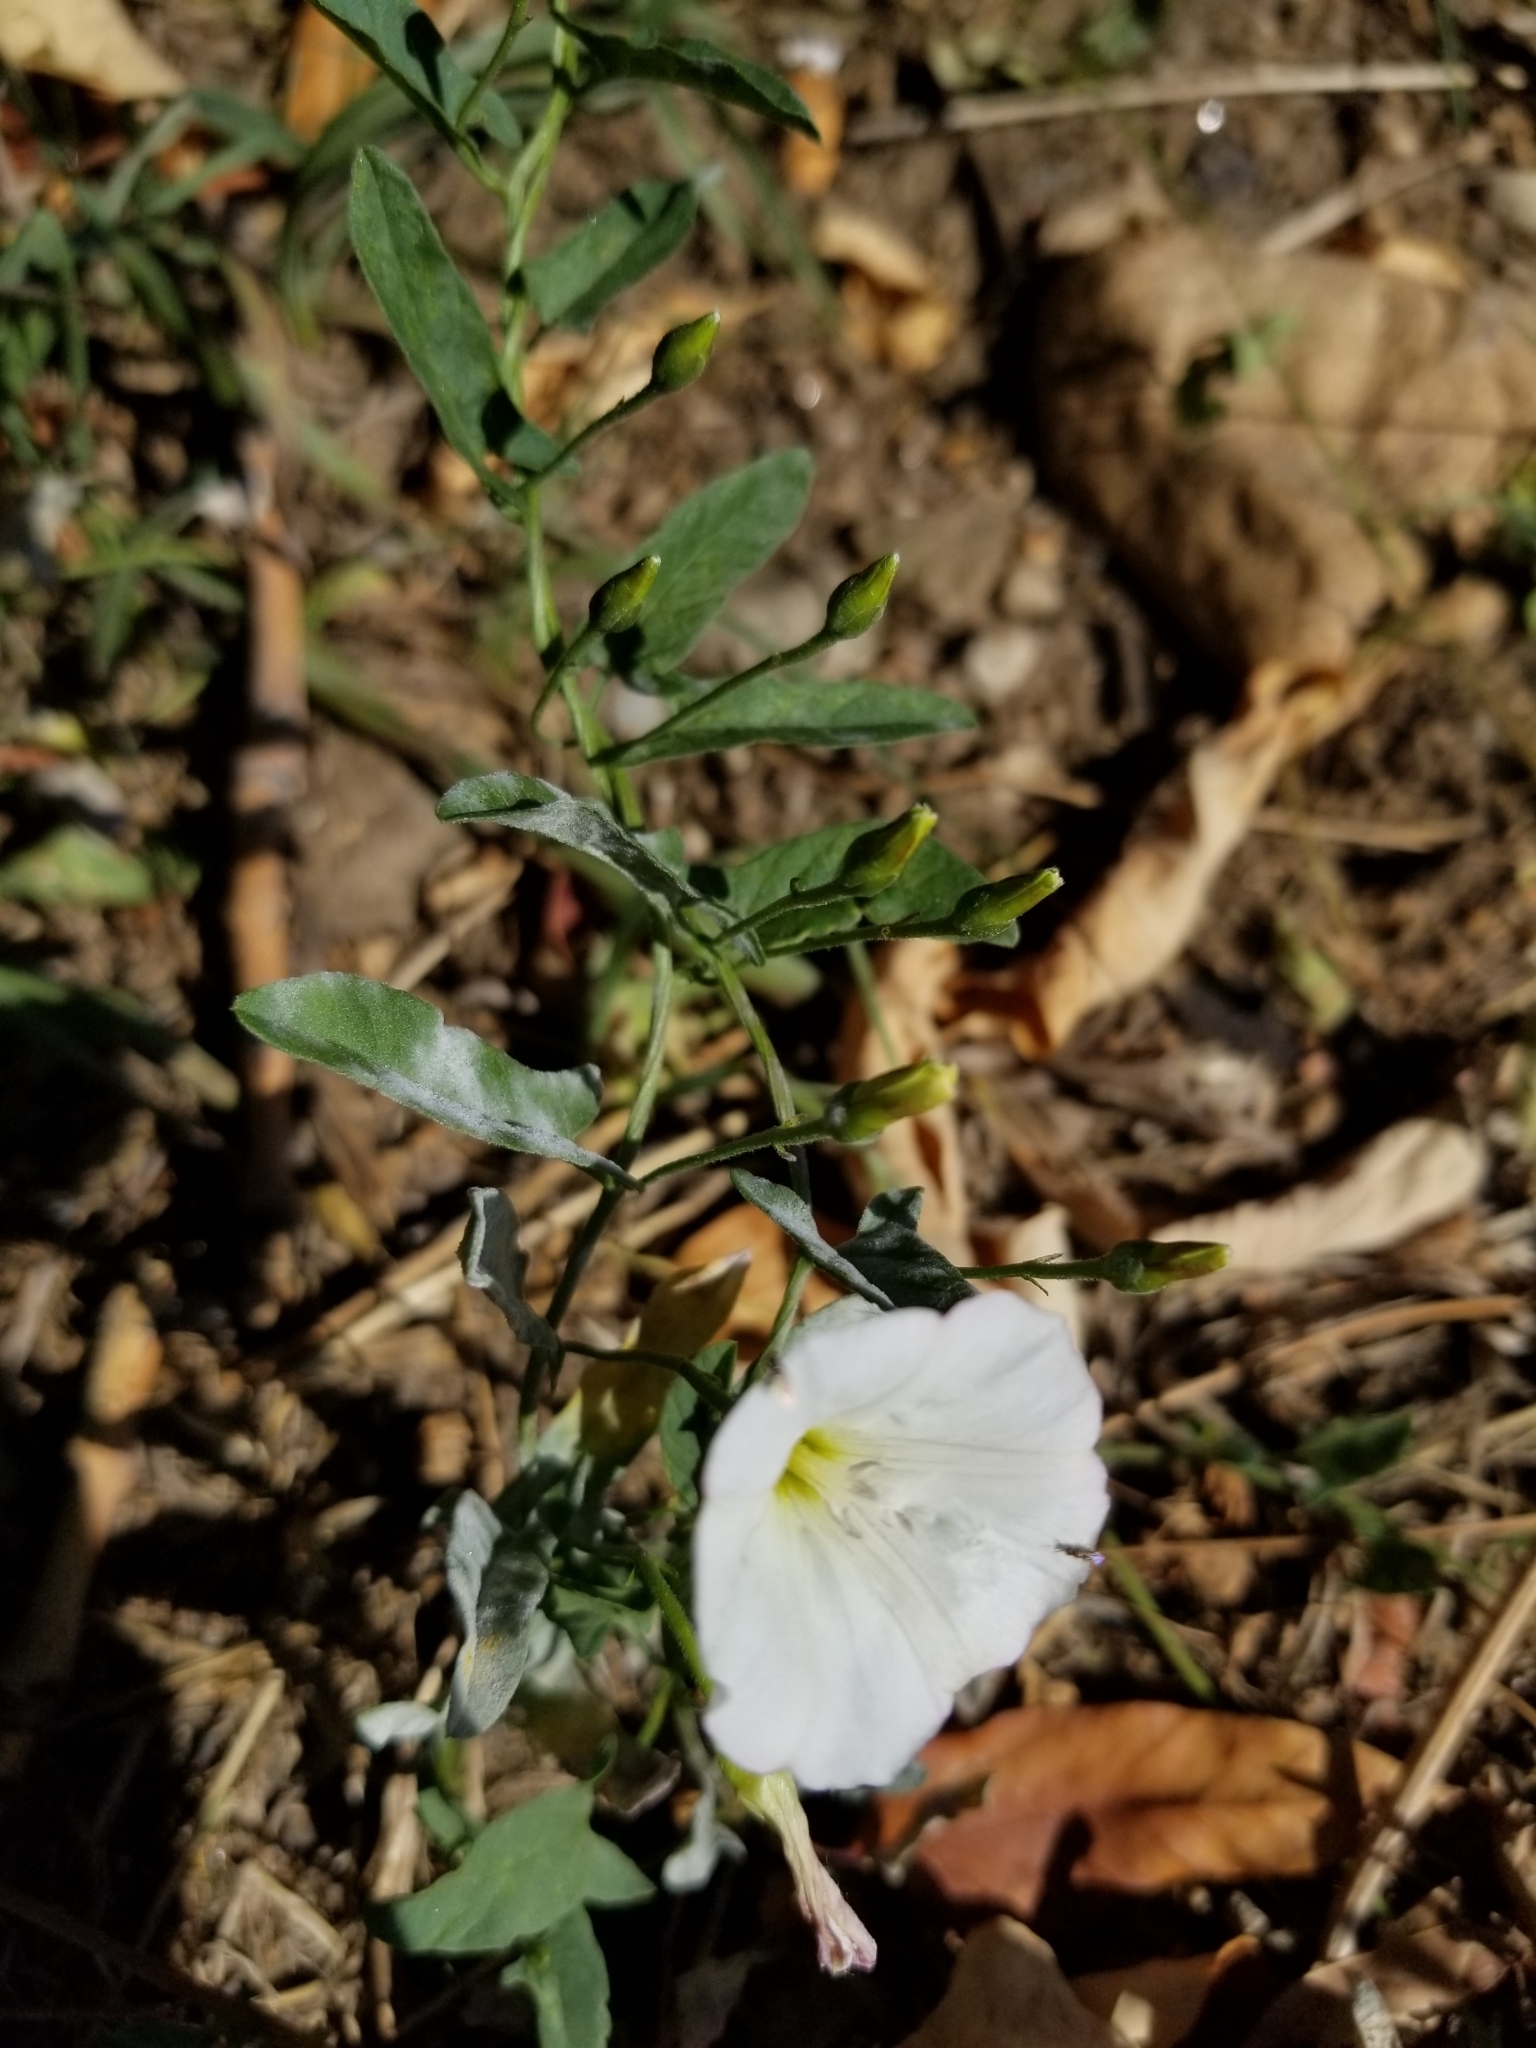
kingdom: Plantae
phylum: Tracheophyta
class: Magnoliopsida
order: Solanales
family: Convolvulaceae
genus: Convolvulus
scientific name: Convolvulus arvensis
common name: Field bindweed
